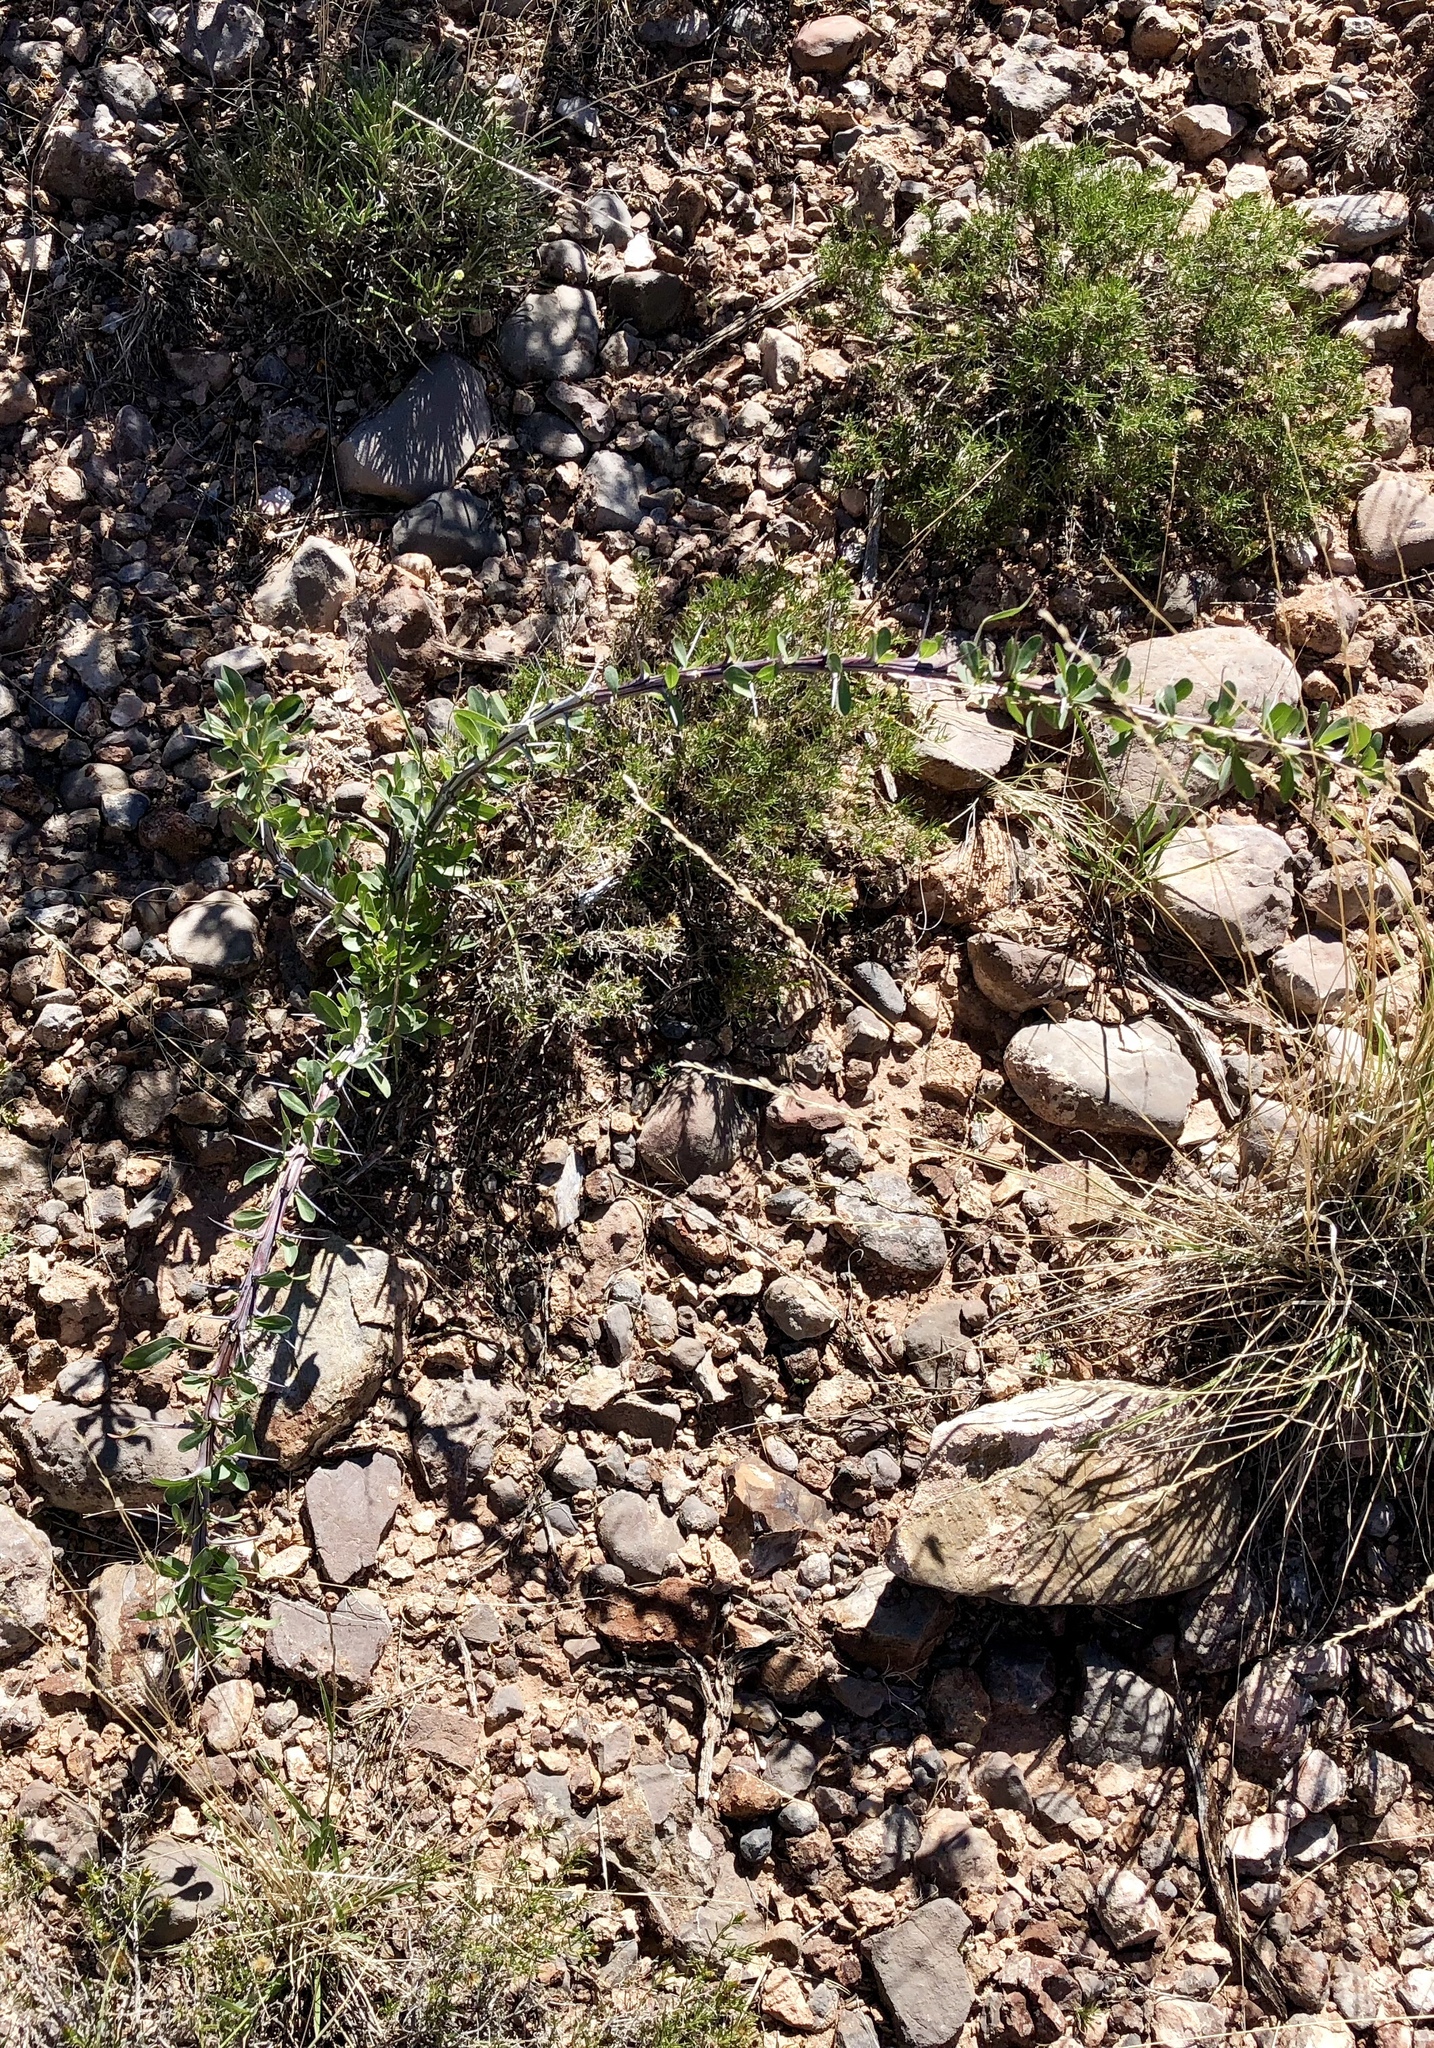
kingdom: Plantae
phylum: Tracheophyta
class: Magnoliopsida
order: Ericales
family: Fouquieriaceae
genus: Fouquieria
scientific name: Fouquieria splendens
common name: Vine-cactus
